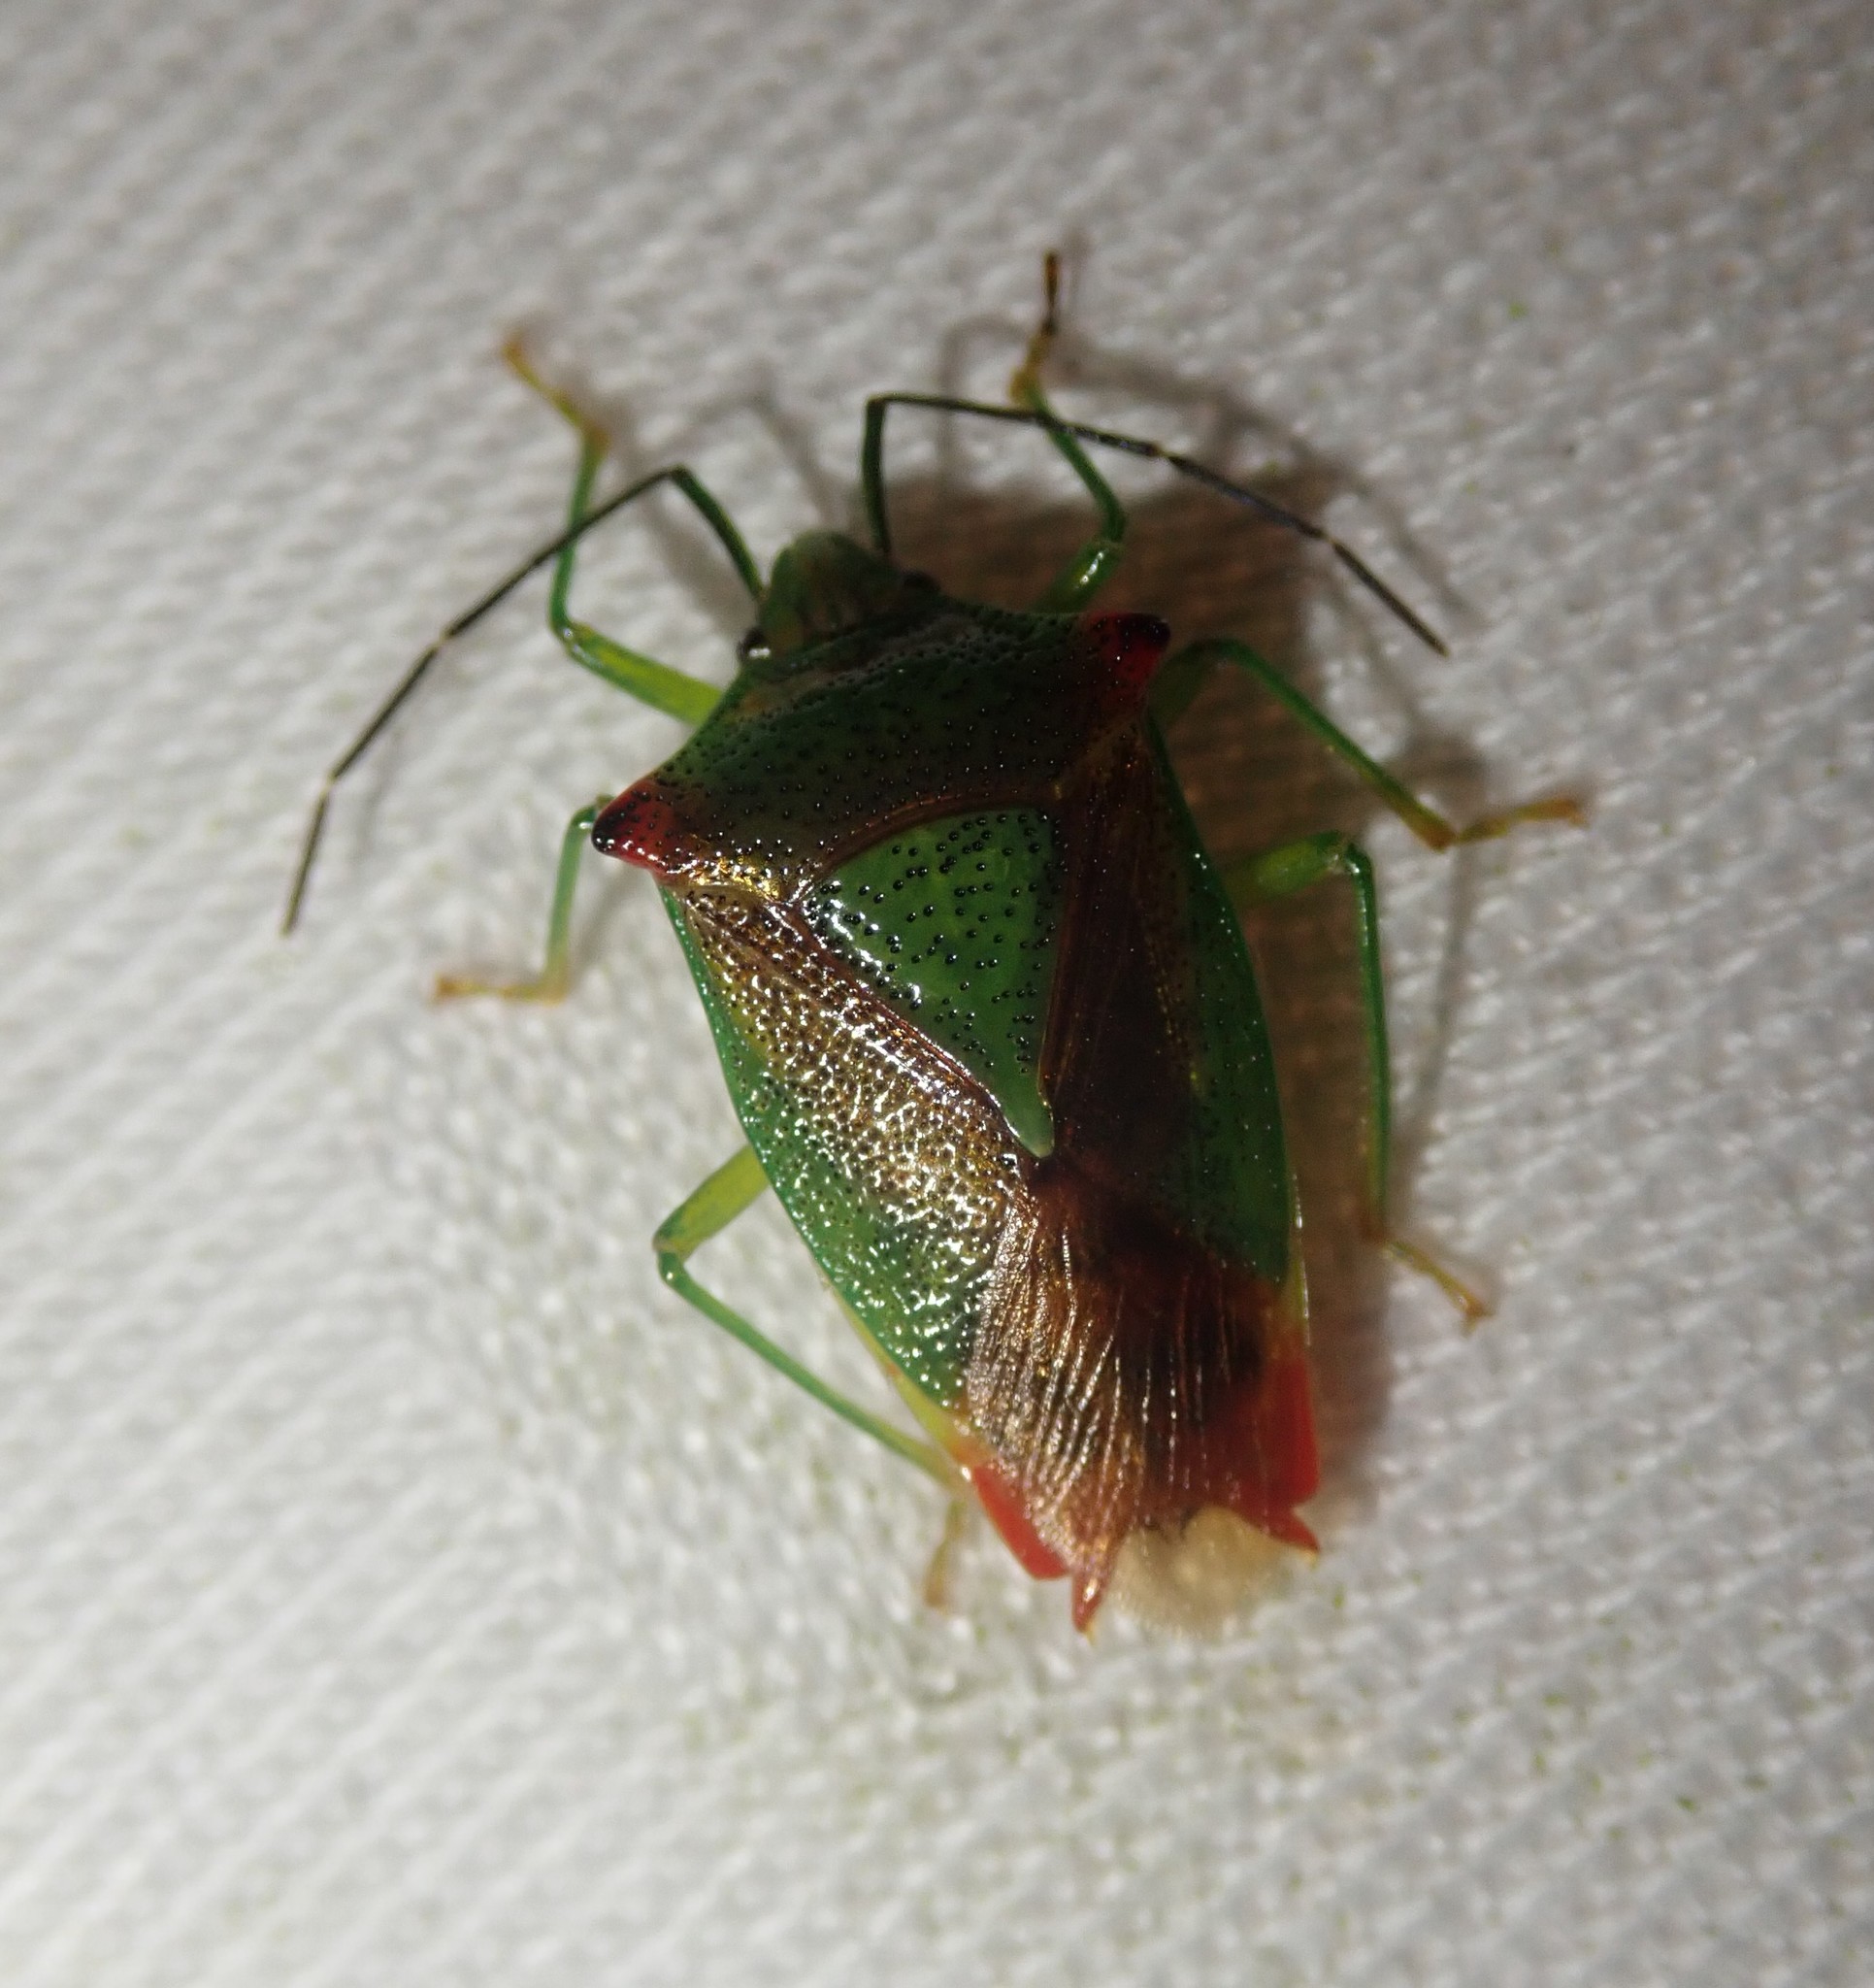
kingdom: Animalia
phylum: Arthropoda
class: Insecta
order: Hemiptera
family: Acanthosomatidae
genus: Acanthosoma
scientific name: Acanthosoma haemorrhoidale
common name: Hawthorn shieldbug
